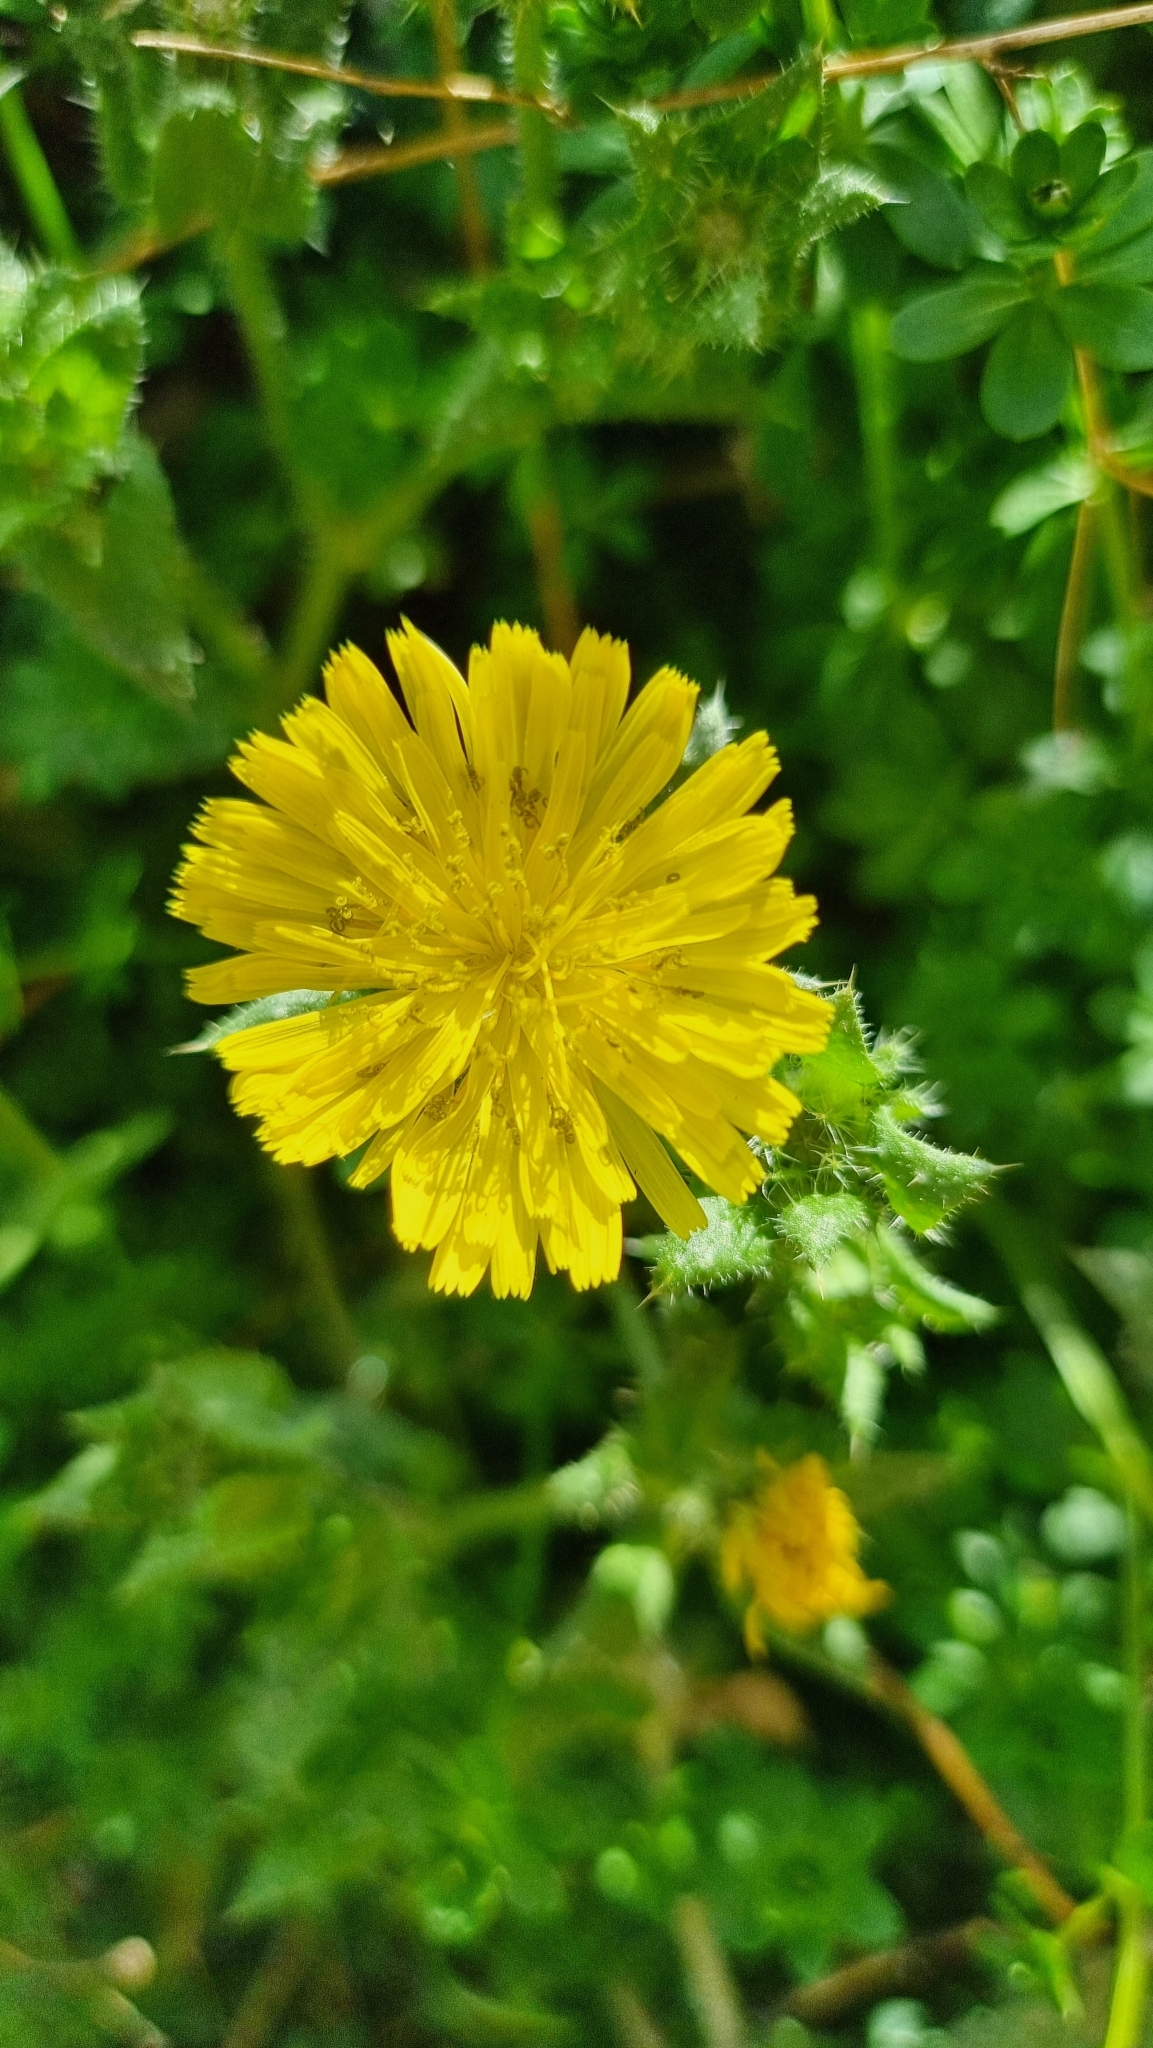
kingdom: Plantae
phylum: Tracheophyta
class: Magnoliopsida
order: Asterales
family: Asteraceae
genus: Helminthotheca
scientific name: Helminthotheca echioides
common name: Ox-tongue
